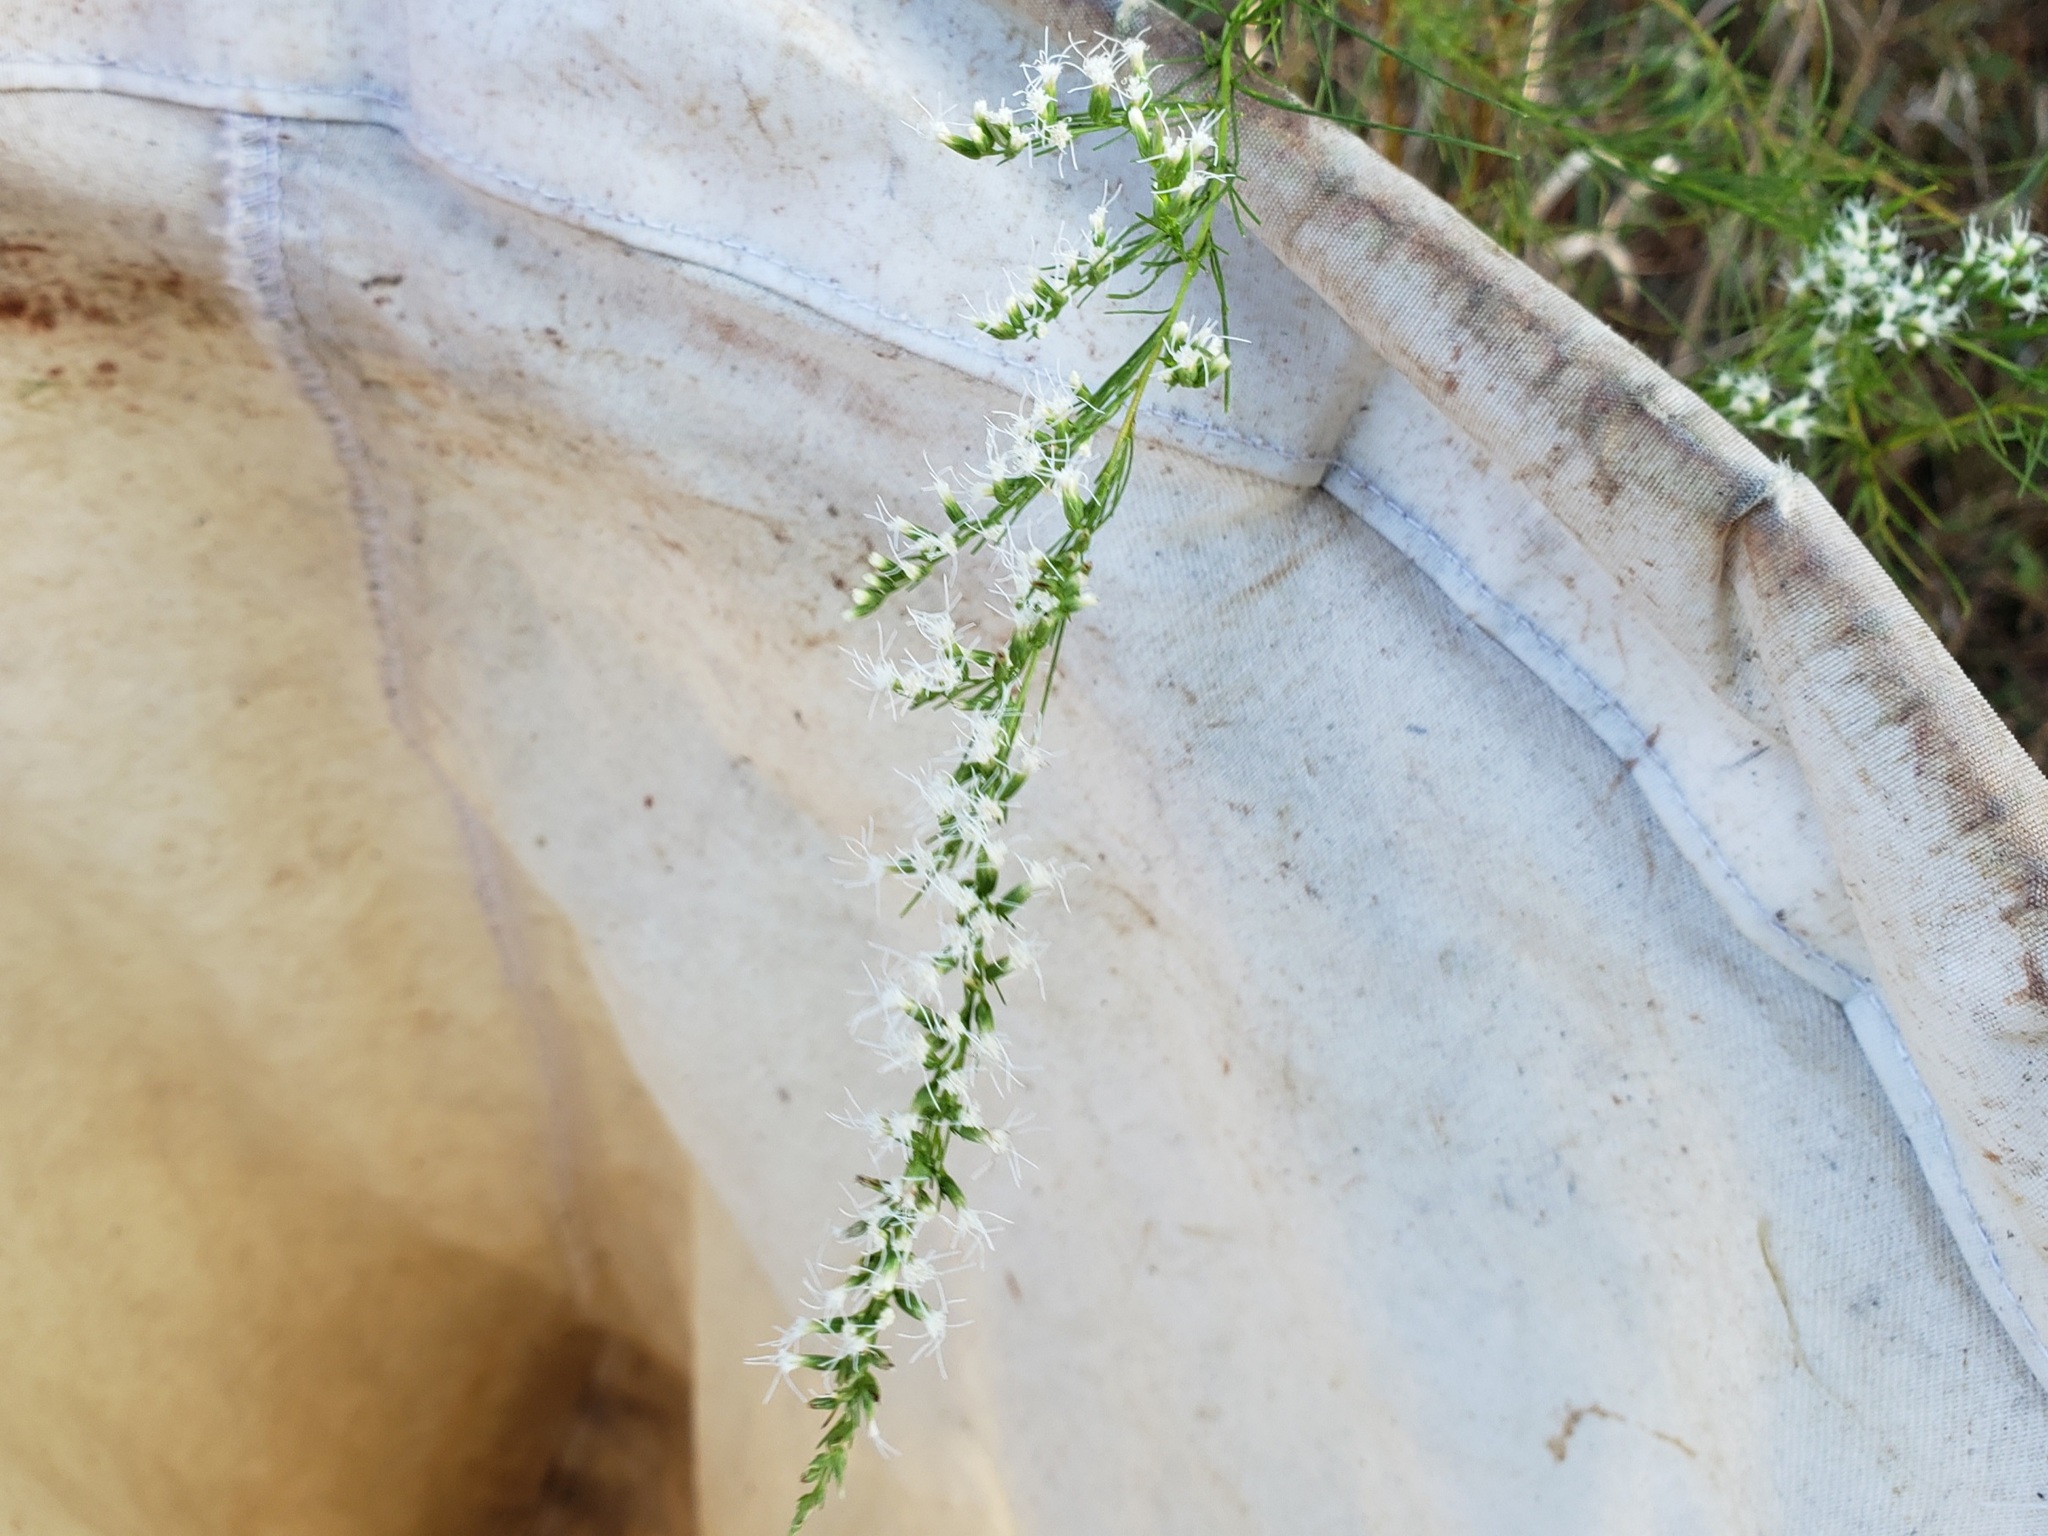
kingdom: Plantae
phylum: Tracheophyta
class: Magnoliopsida
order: Asterales
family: Asteraceae
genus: Eupatorium
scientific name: Eupatorium leptophyllum
